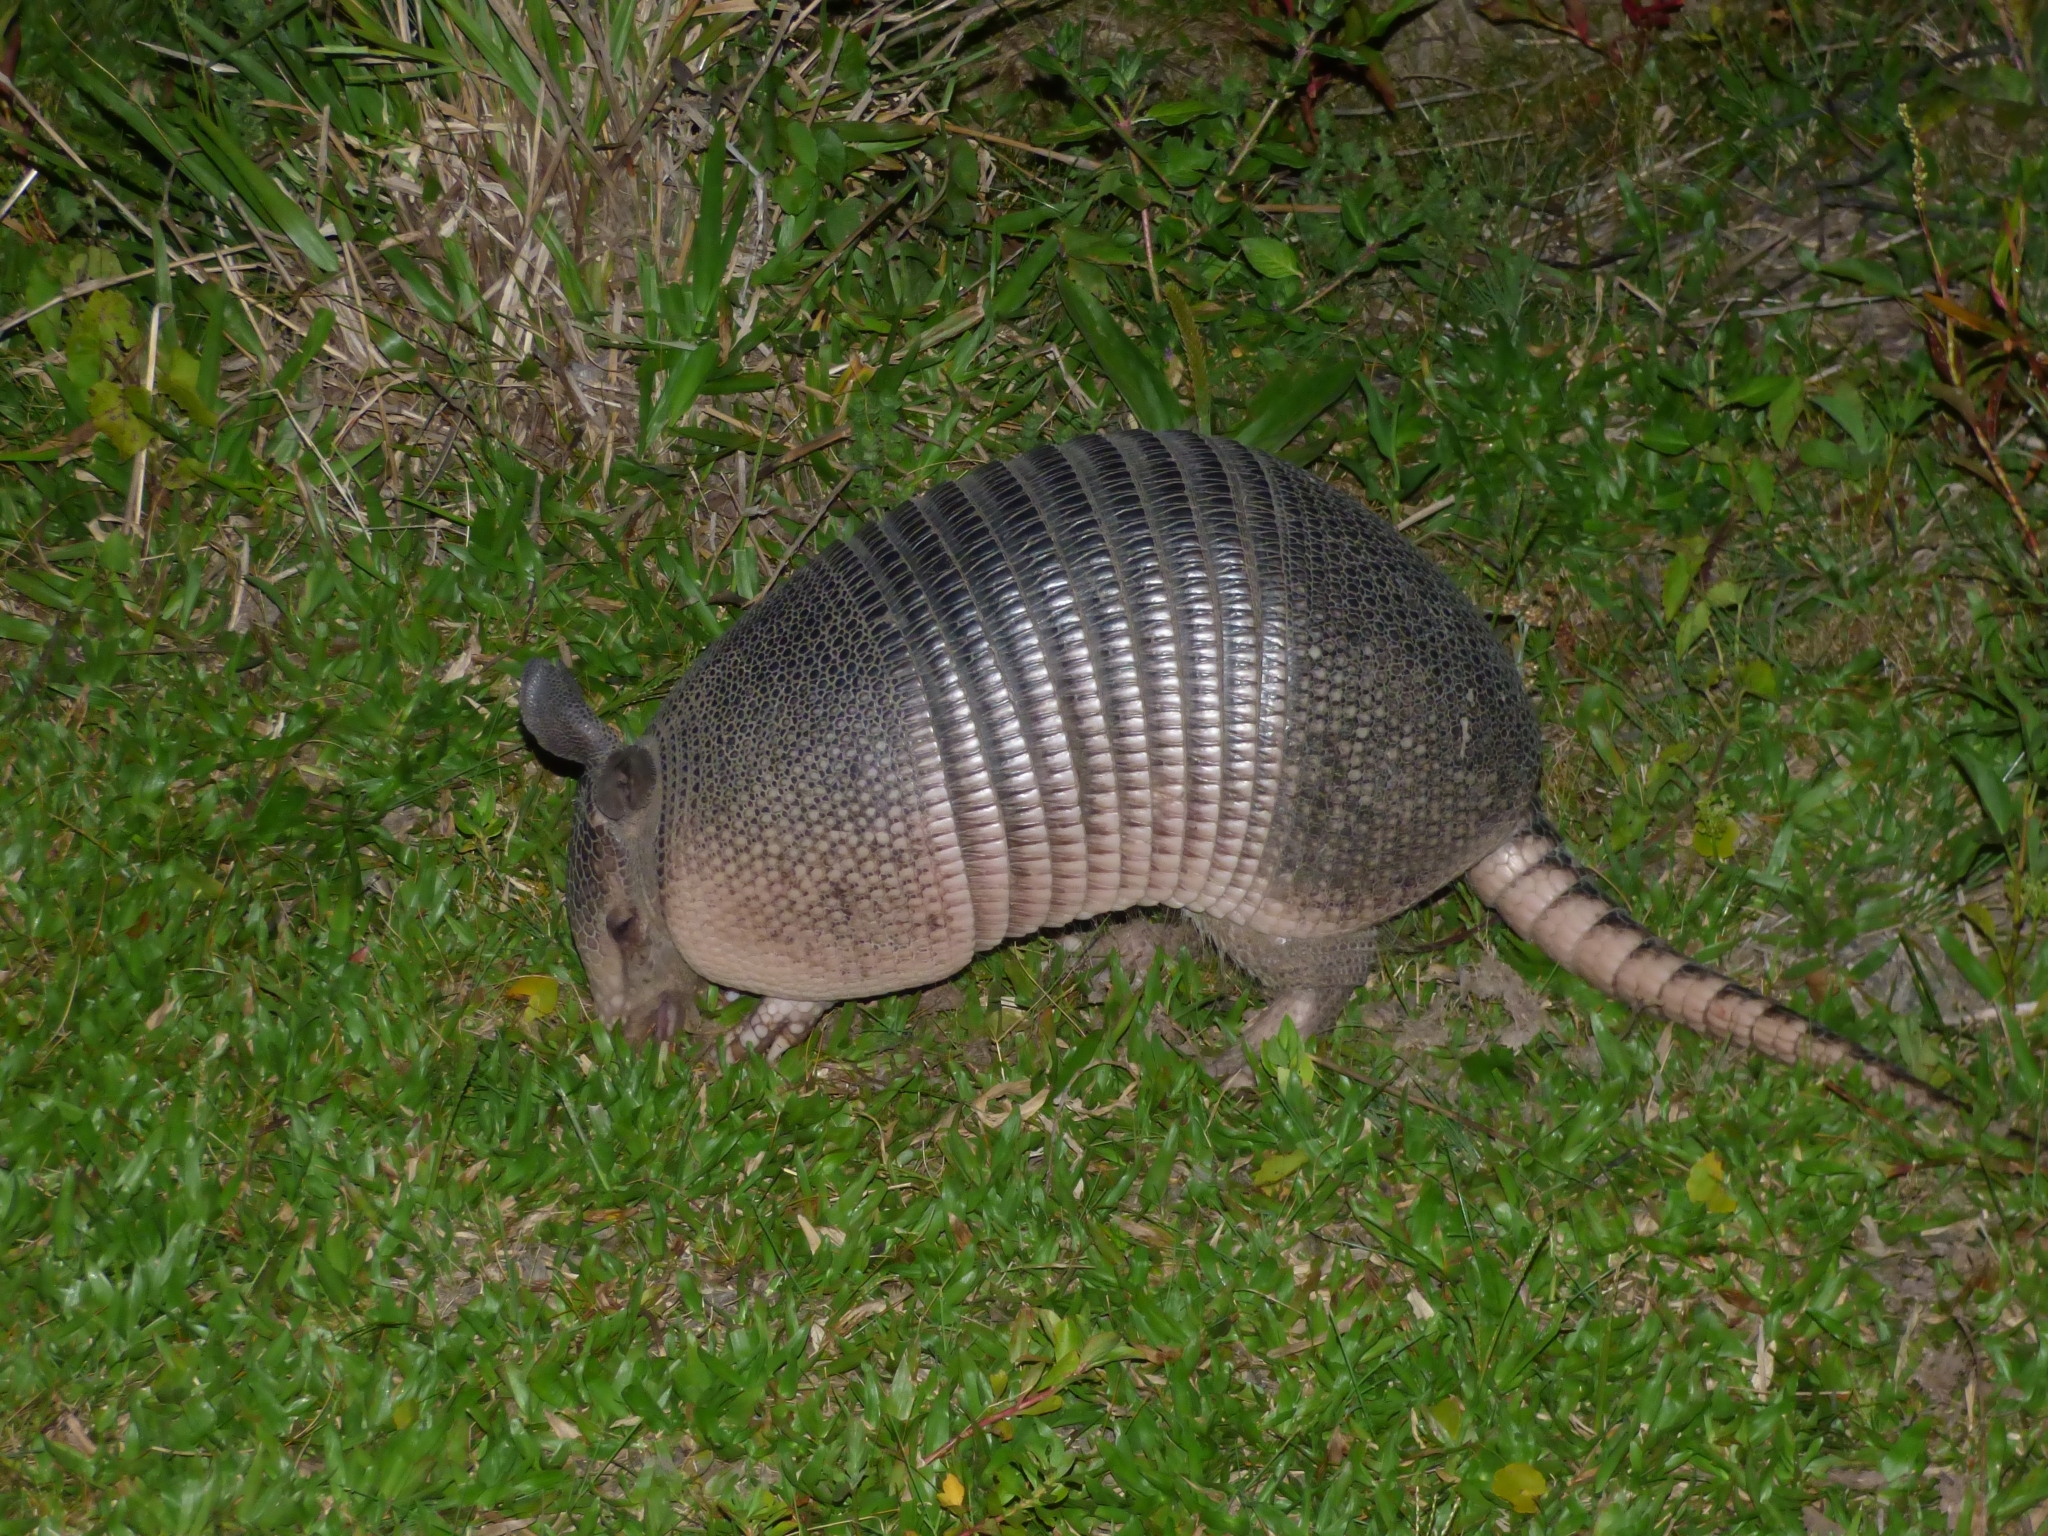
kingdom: Animalia
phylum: Chordata
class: Mammalia
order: Cingulata
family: Dasypodidae
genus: Dasypus
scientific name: Dasypus novemcinctus
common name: Nine-banded armadillo
